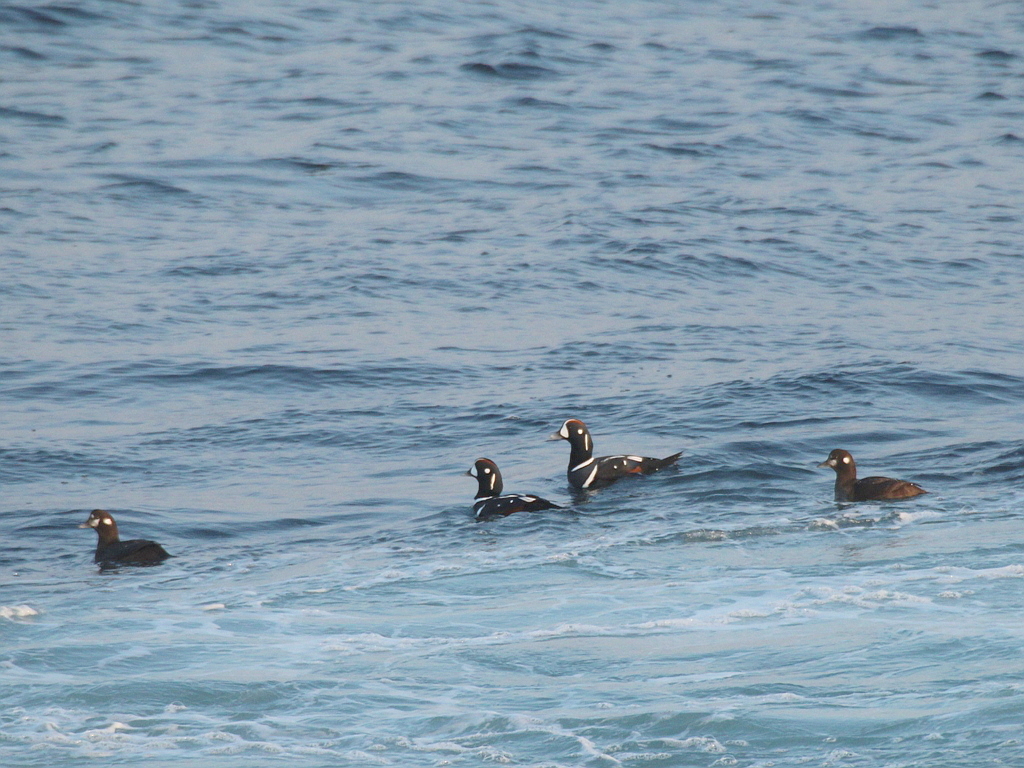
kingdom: Animalia
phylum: Chordata
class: Aves
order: Anseriformes
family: Anatidae
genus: Histrionicus
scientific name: Histrionicus histrionicus
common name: Harlequin duck
